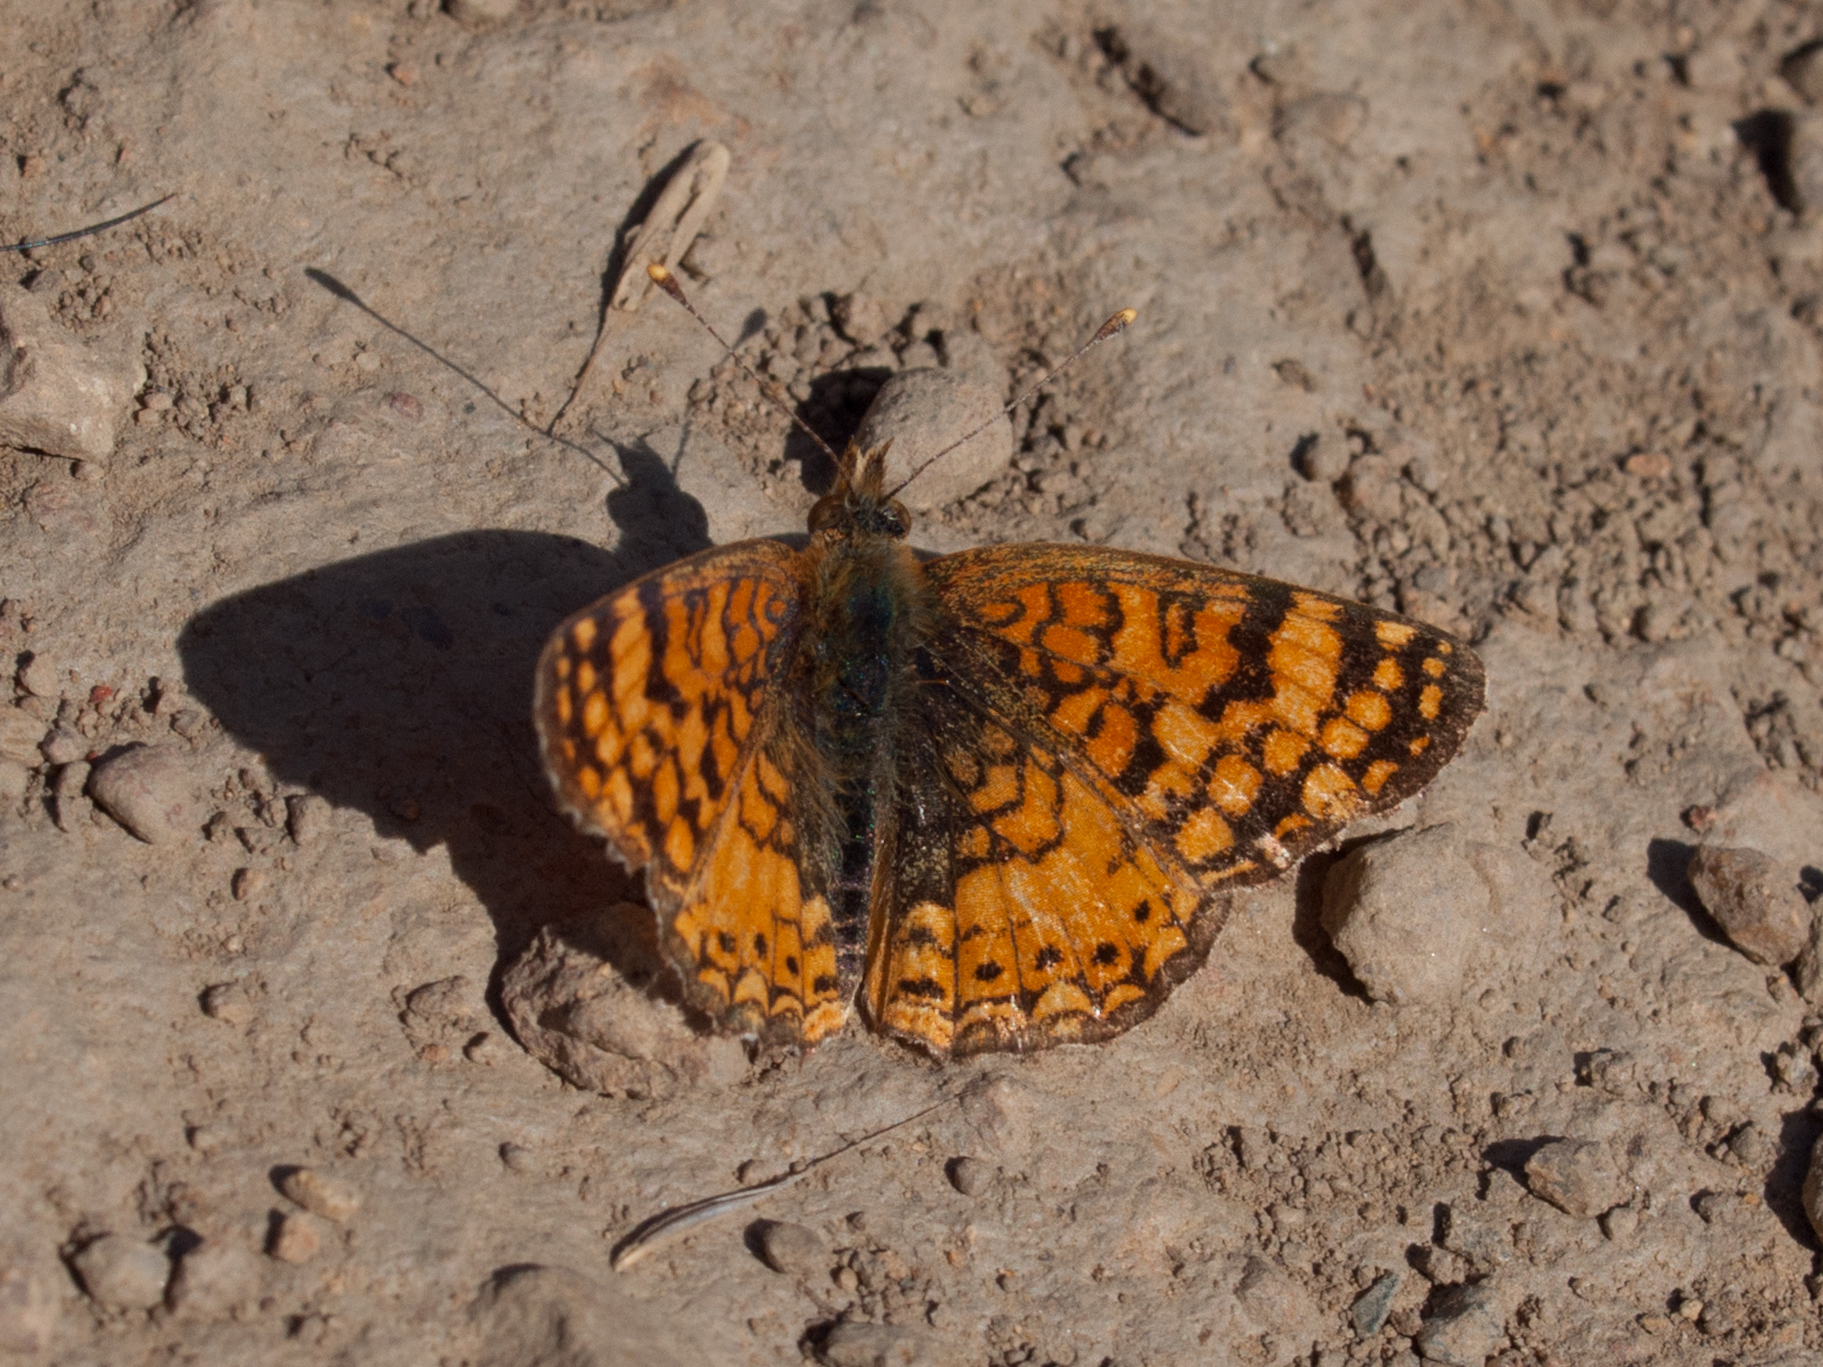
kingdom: Animalia
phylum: Arthropoda
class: Insecta
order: Lepidoptera
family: Nymphalidae
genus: Eresia
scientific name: Eresia aveyrona
